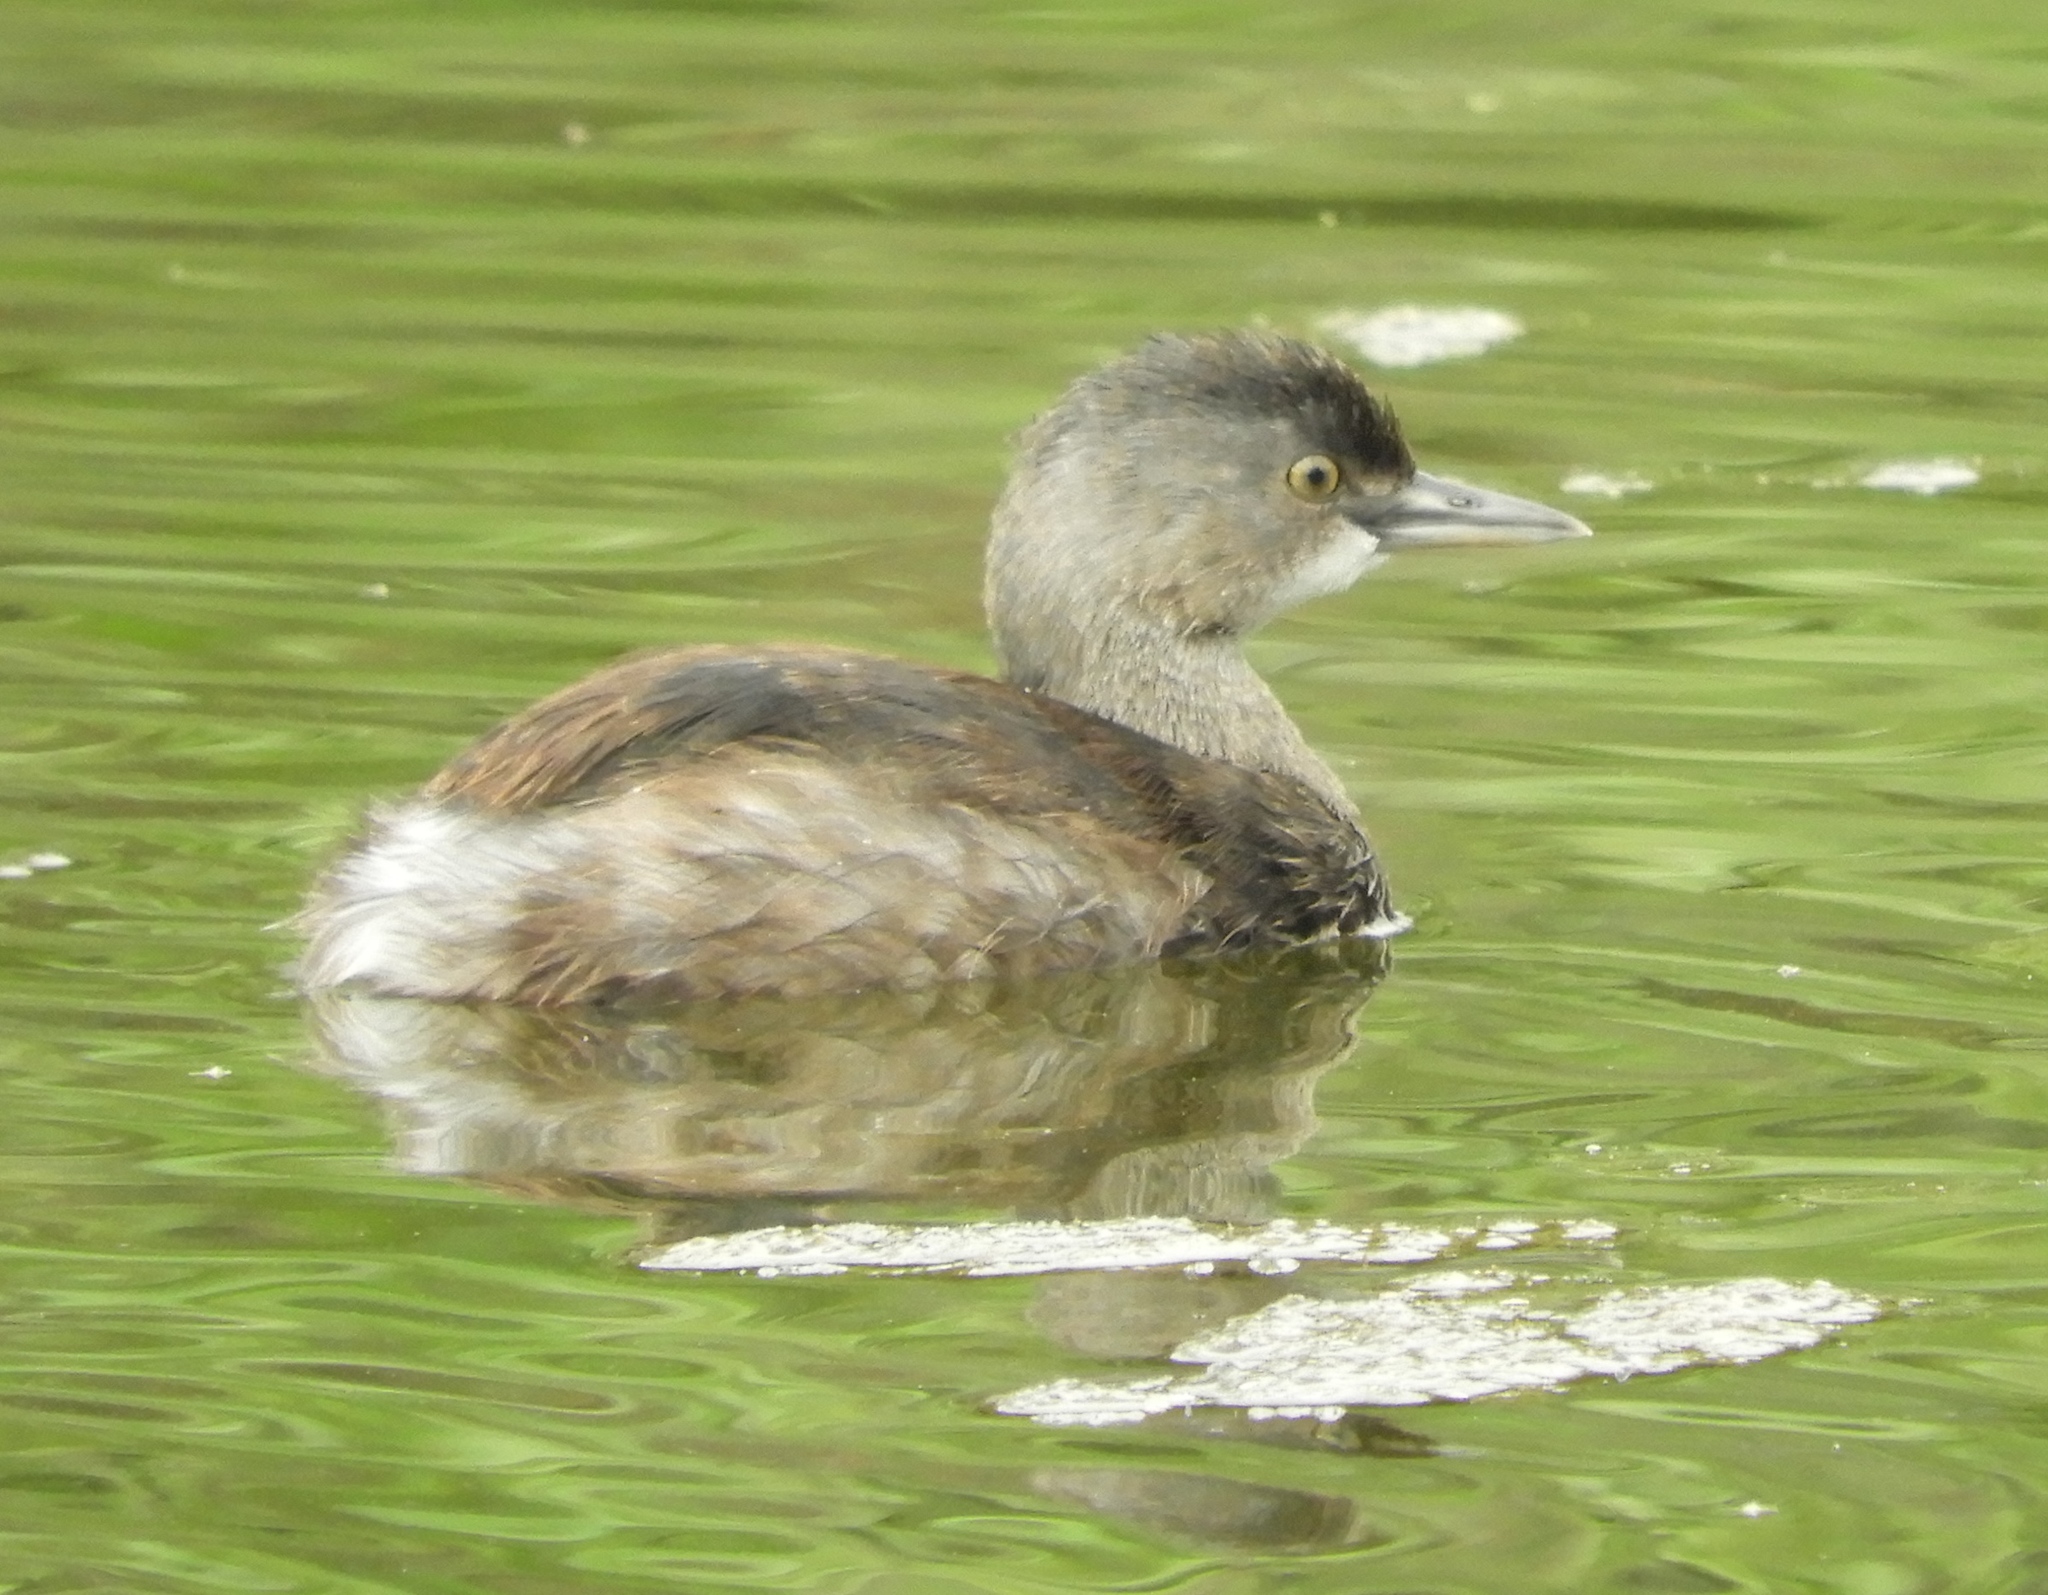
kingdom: Animalia
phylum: Chordata
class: Aves
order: Podicipediformes
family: Podicipedidae
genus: Tachybaptus
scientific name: Tachybaptus dominicus
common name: Least grebe
